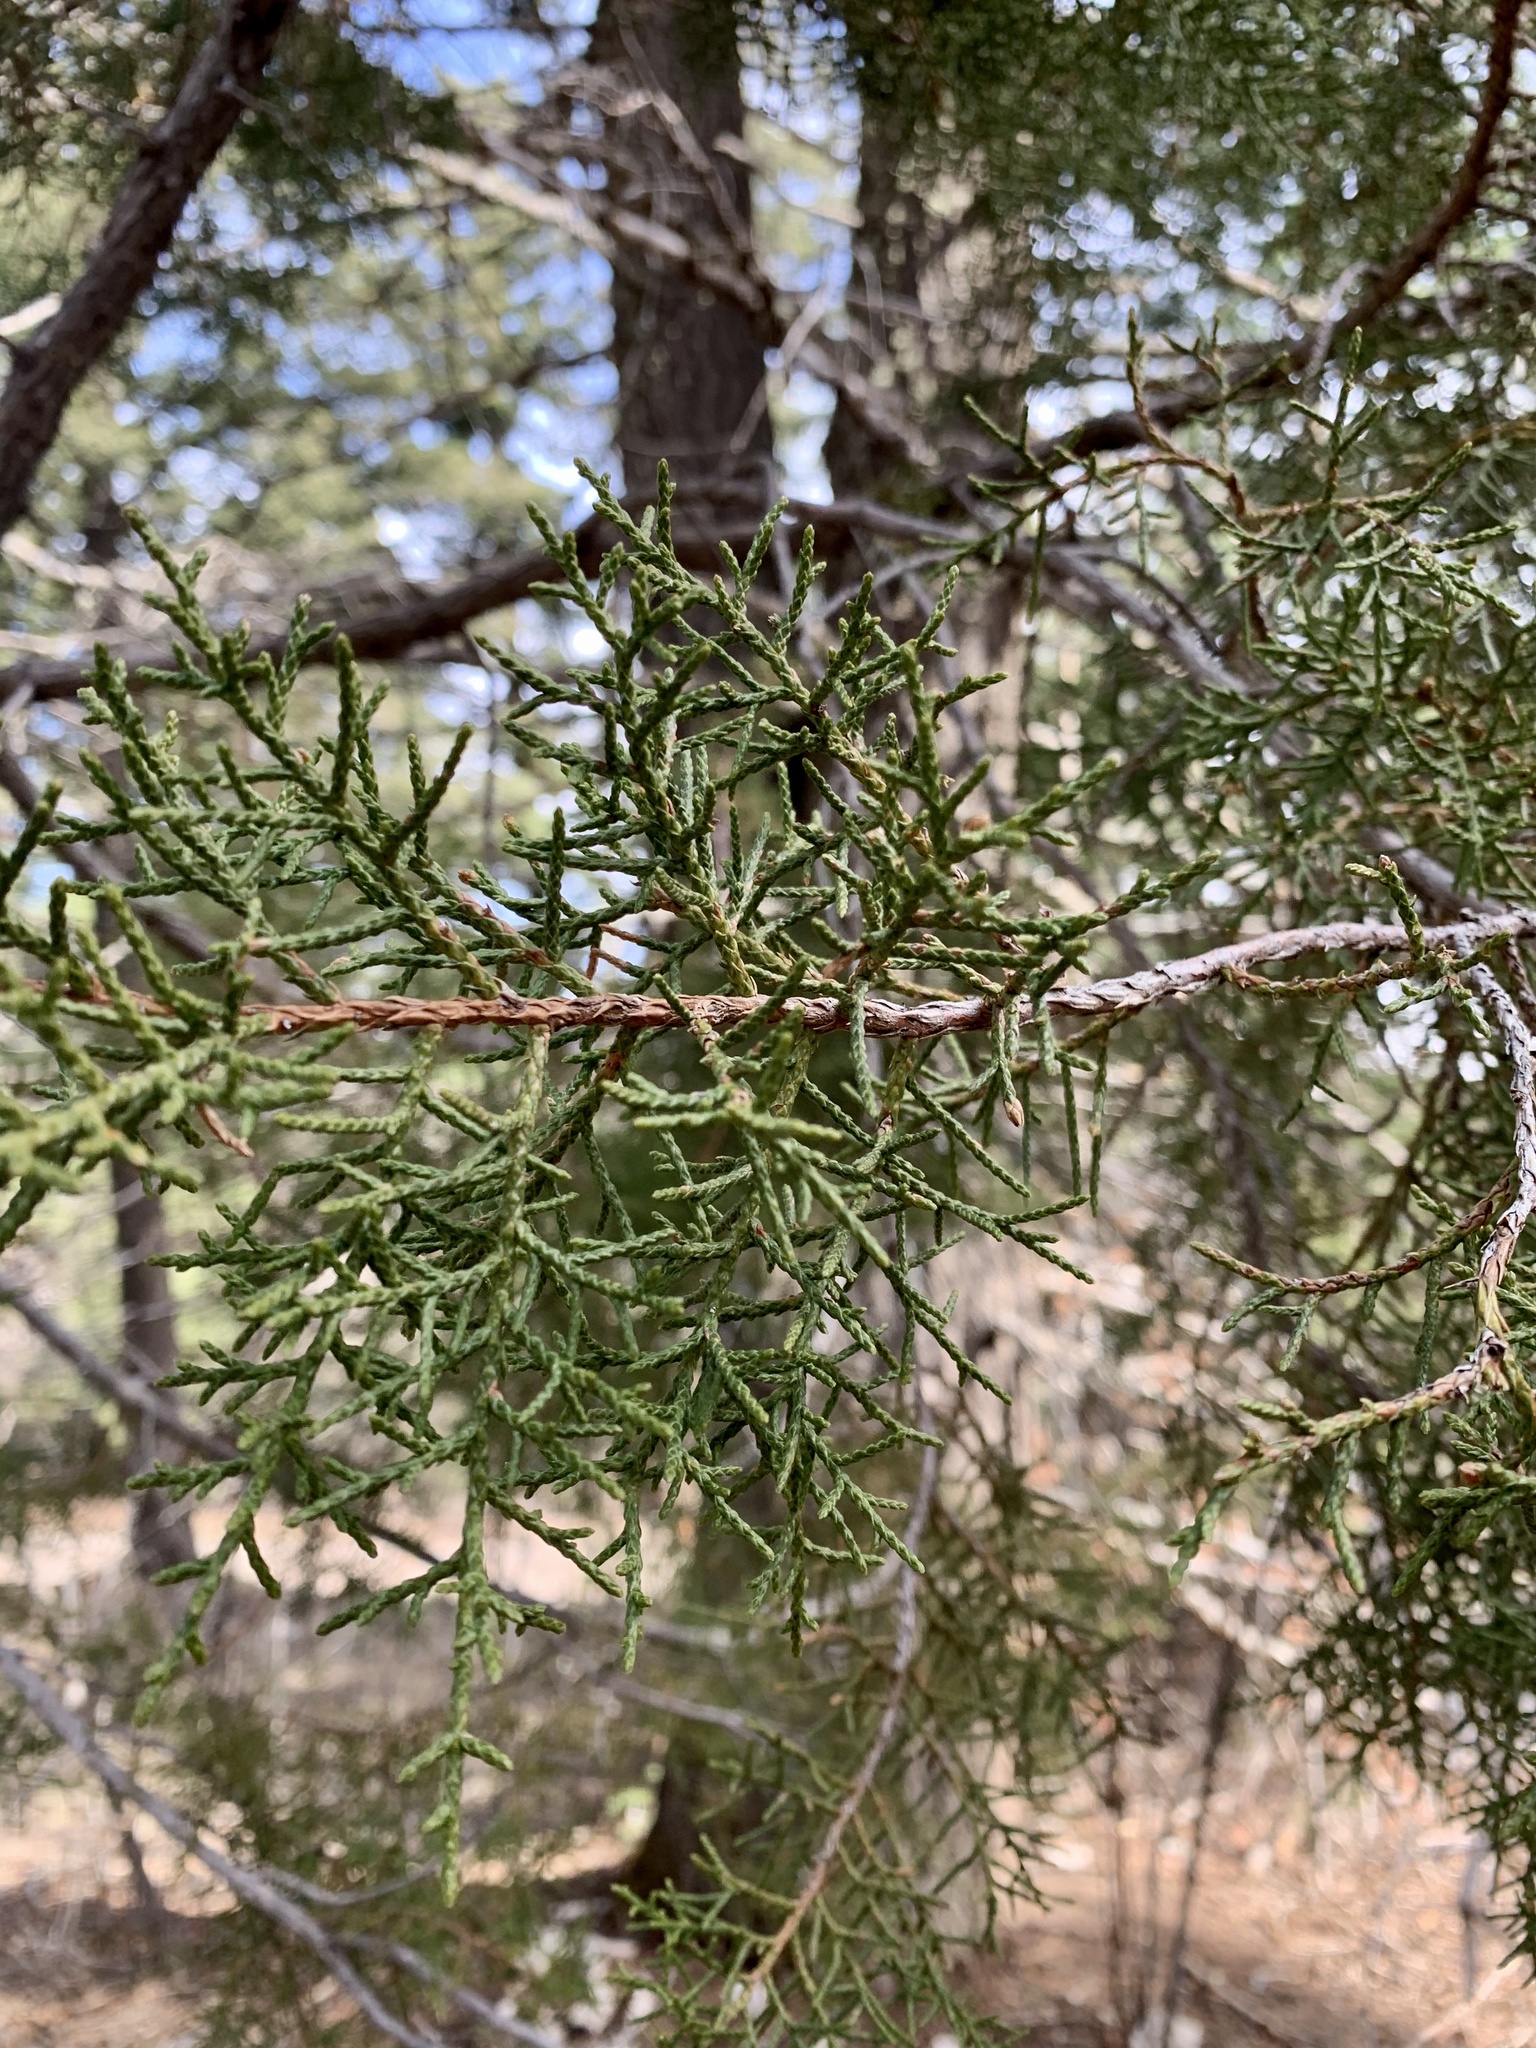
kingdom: Plantae
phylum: Tracheophyta
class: Pinopsida
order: Pinales
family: Cupressaceae
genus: Juniperus
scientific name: Juniperus monosperma
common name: One-seed juniper
